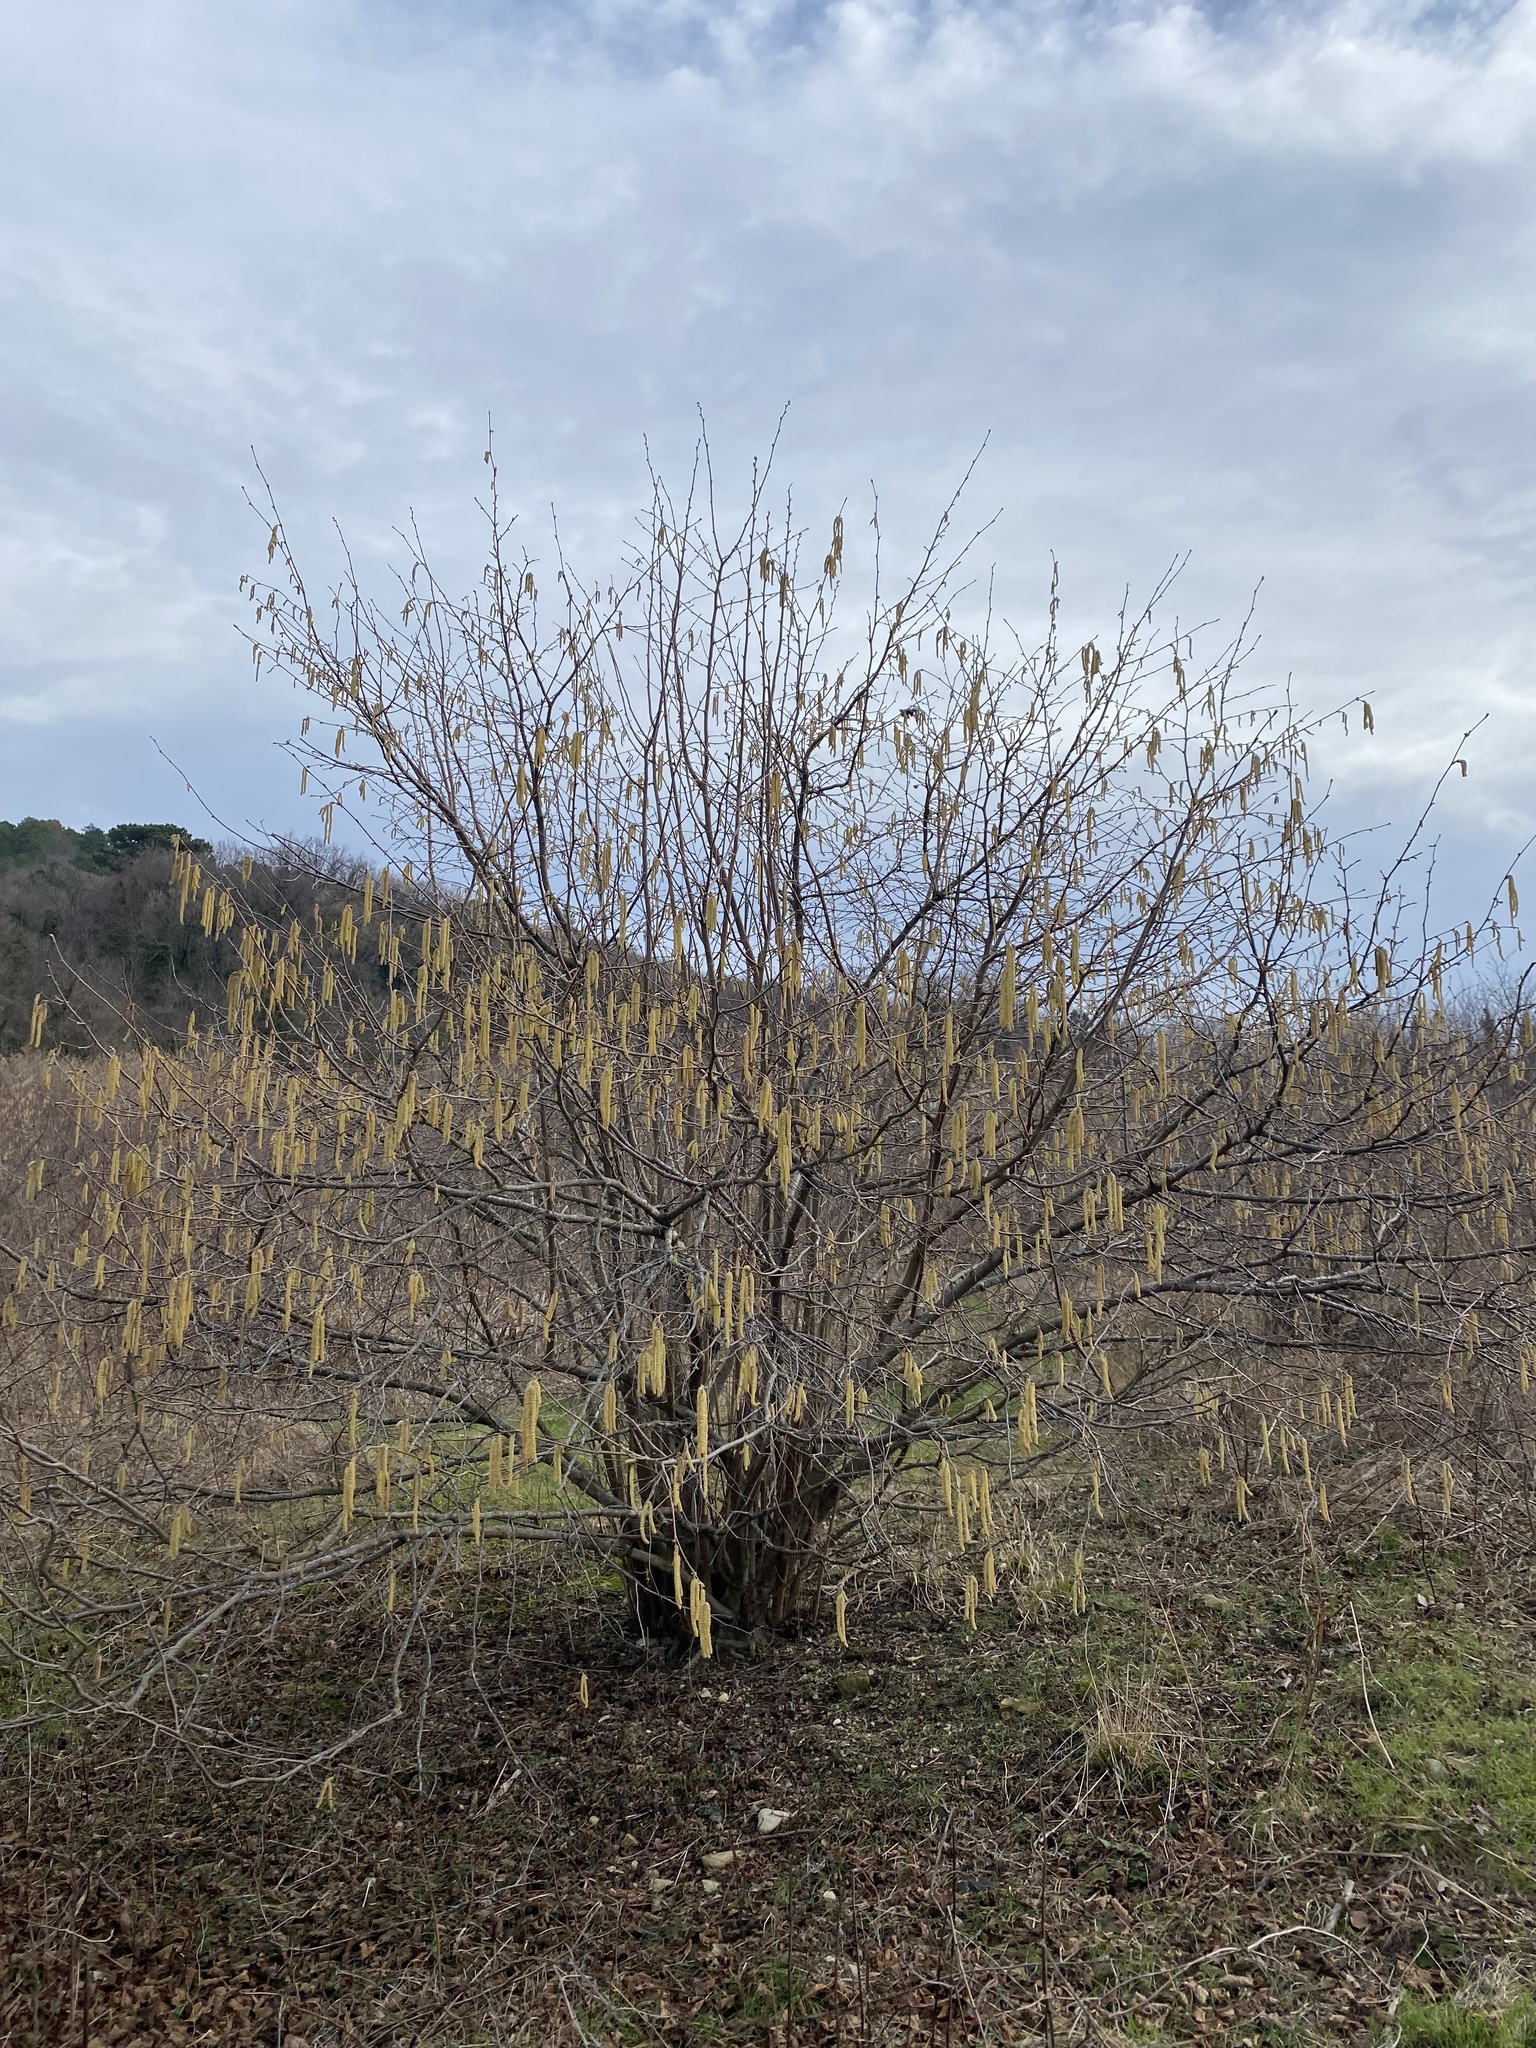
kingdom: Plantae
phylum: Tracheophyta
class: Magnoliopsida
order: Fagales
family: Betulaceae
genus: Corylus
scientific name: Corylus avellana
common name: European hazel
